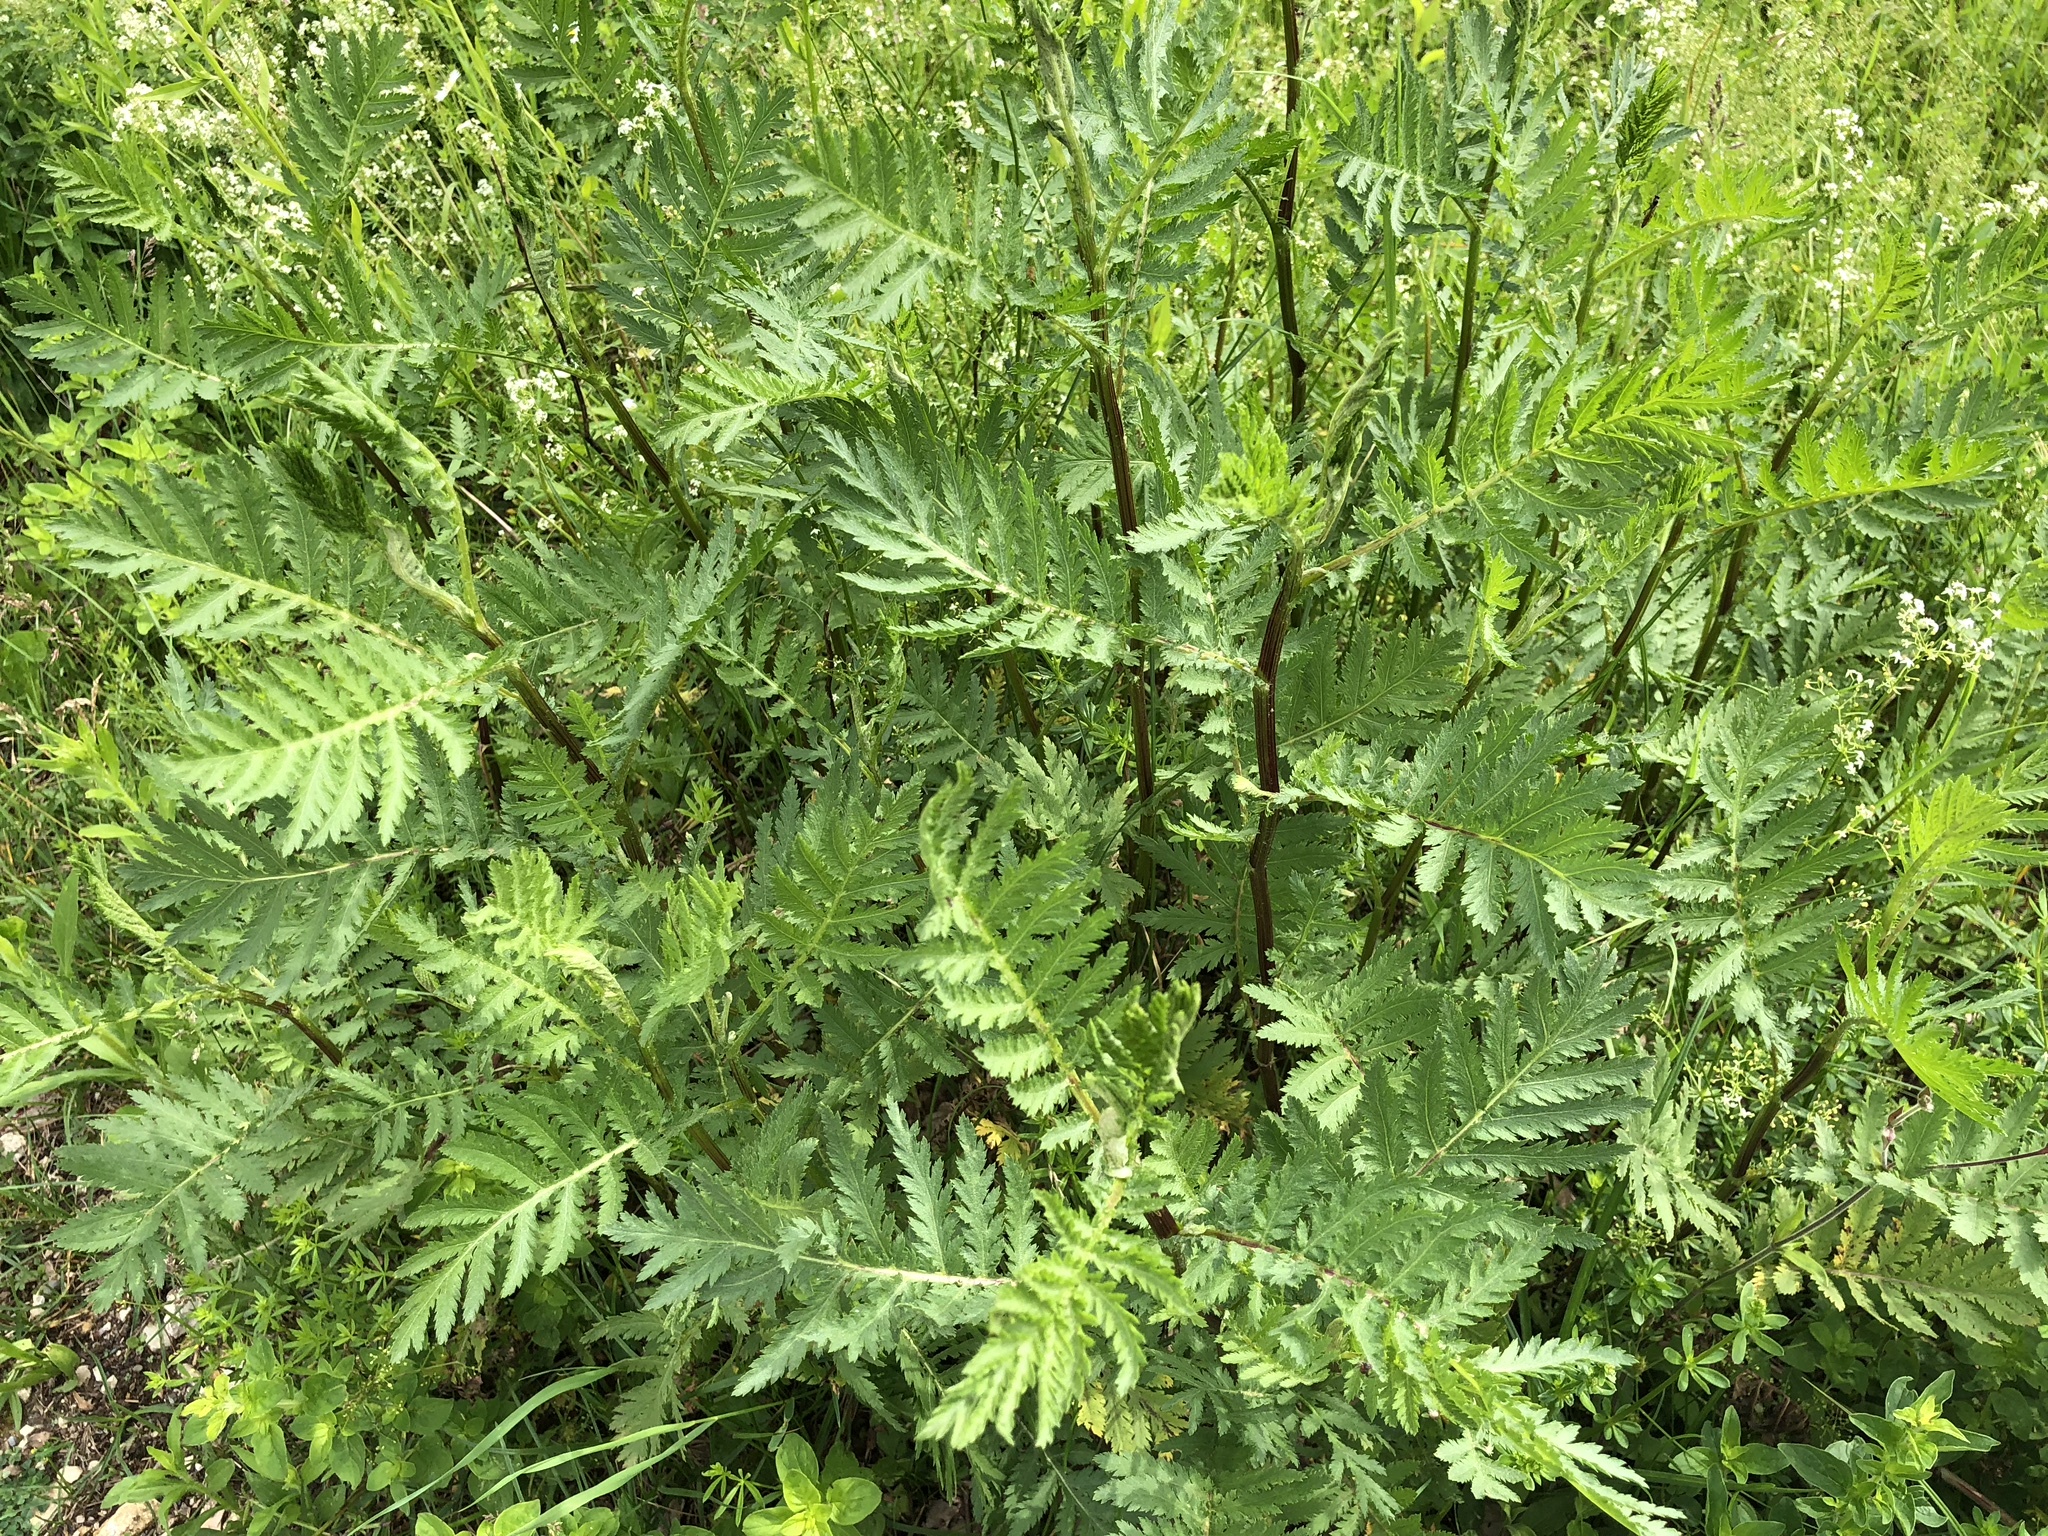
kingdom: Plantae
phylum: Tracheophyta
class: Magnoliopsida
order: Asterales
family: Asteraceae
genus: Tanacetum
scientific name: Tanacetum vulgare
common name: Common tansy
